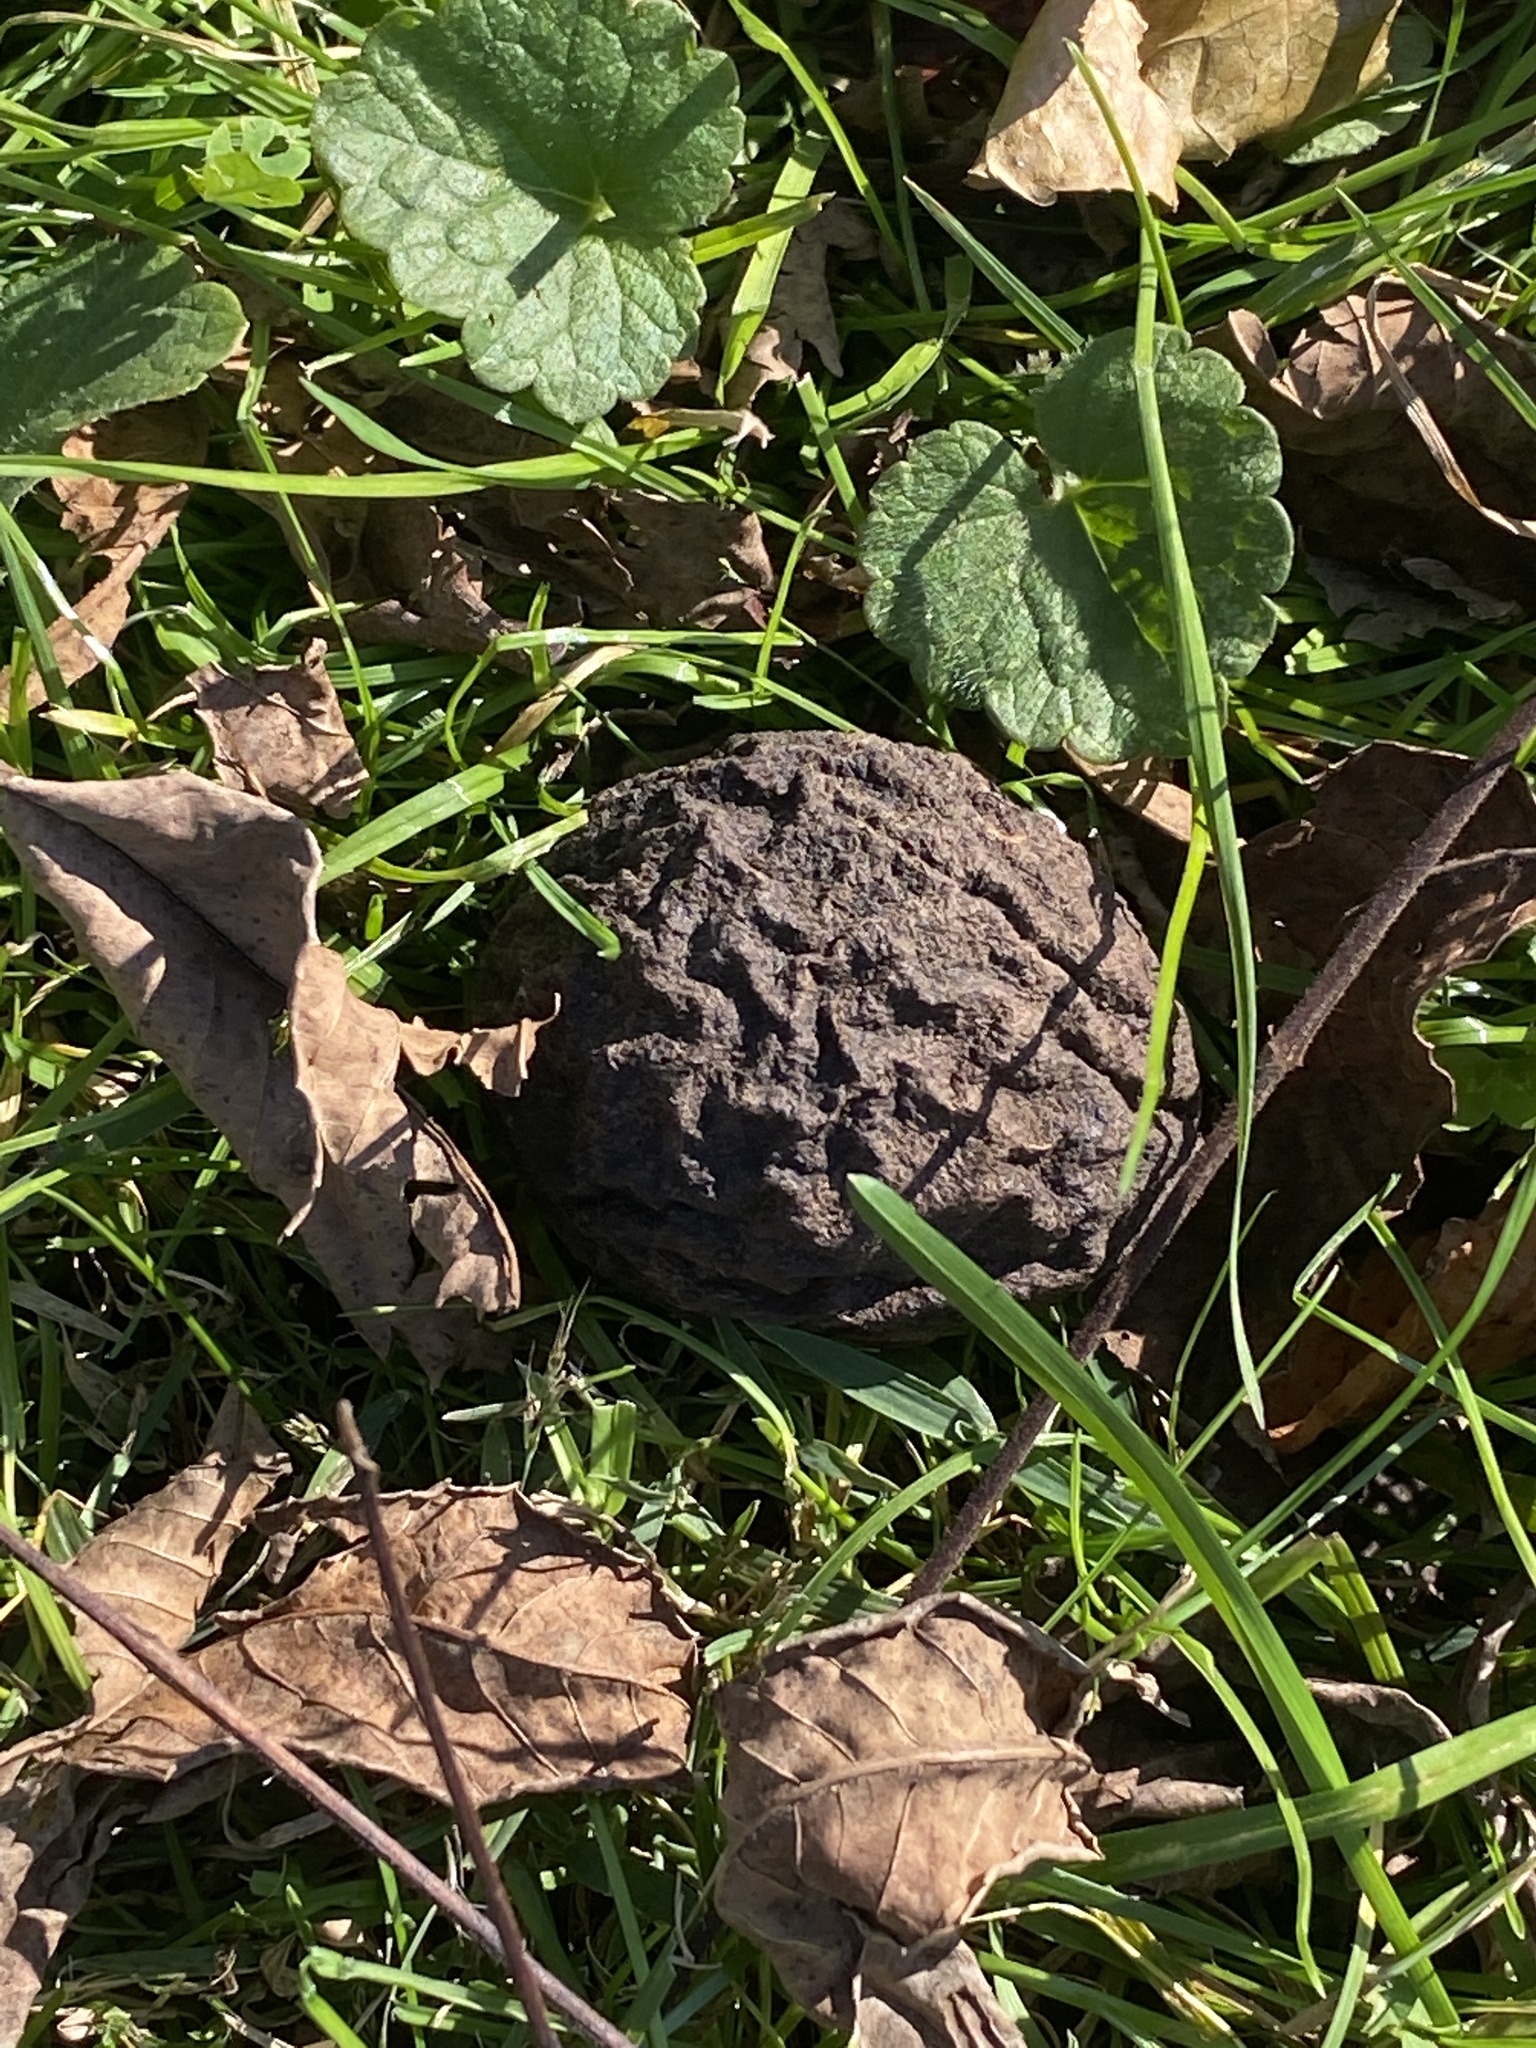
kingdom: Plantae
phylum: Tracheophyta
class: Magnoliopsida
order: Fagales
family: Juglandaceae
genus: Juglans
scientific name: Juglans nigra
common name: Black walnut
